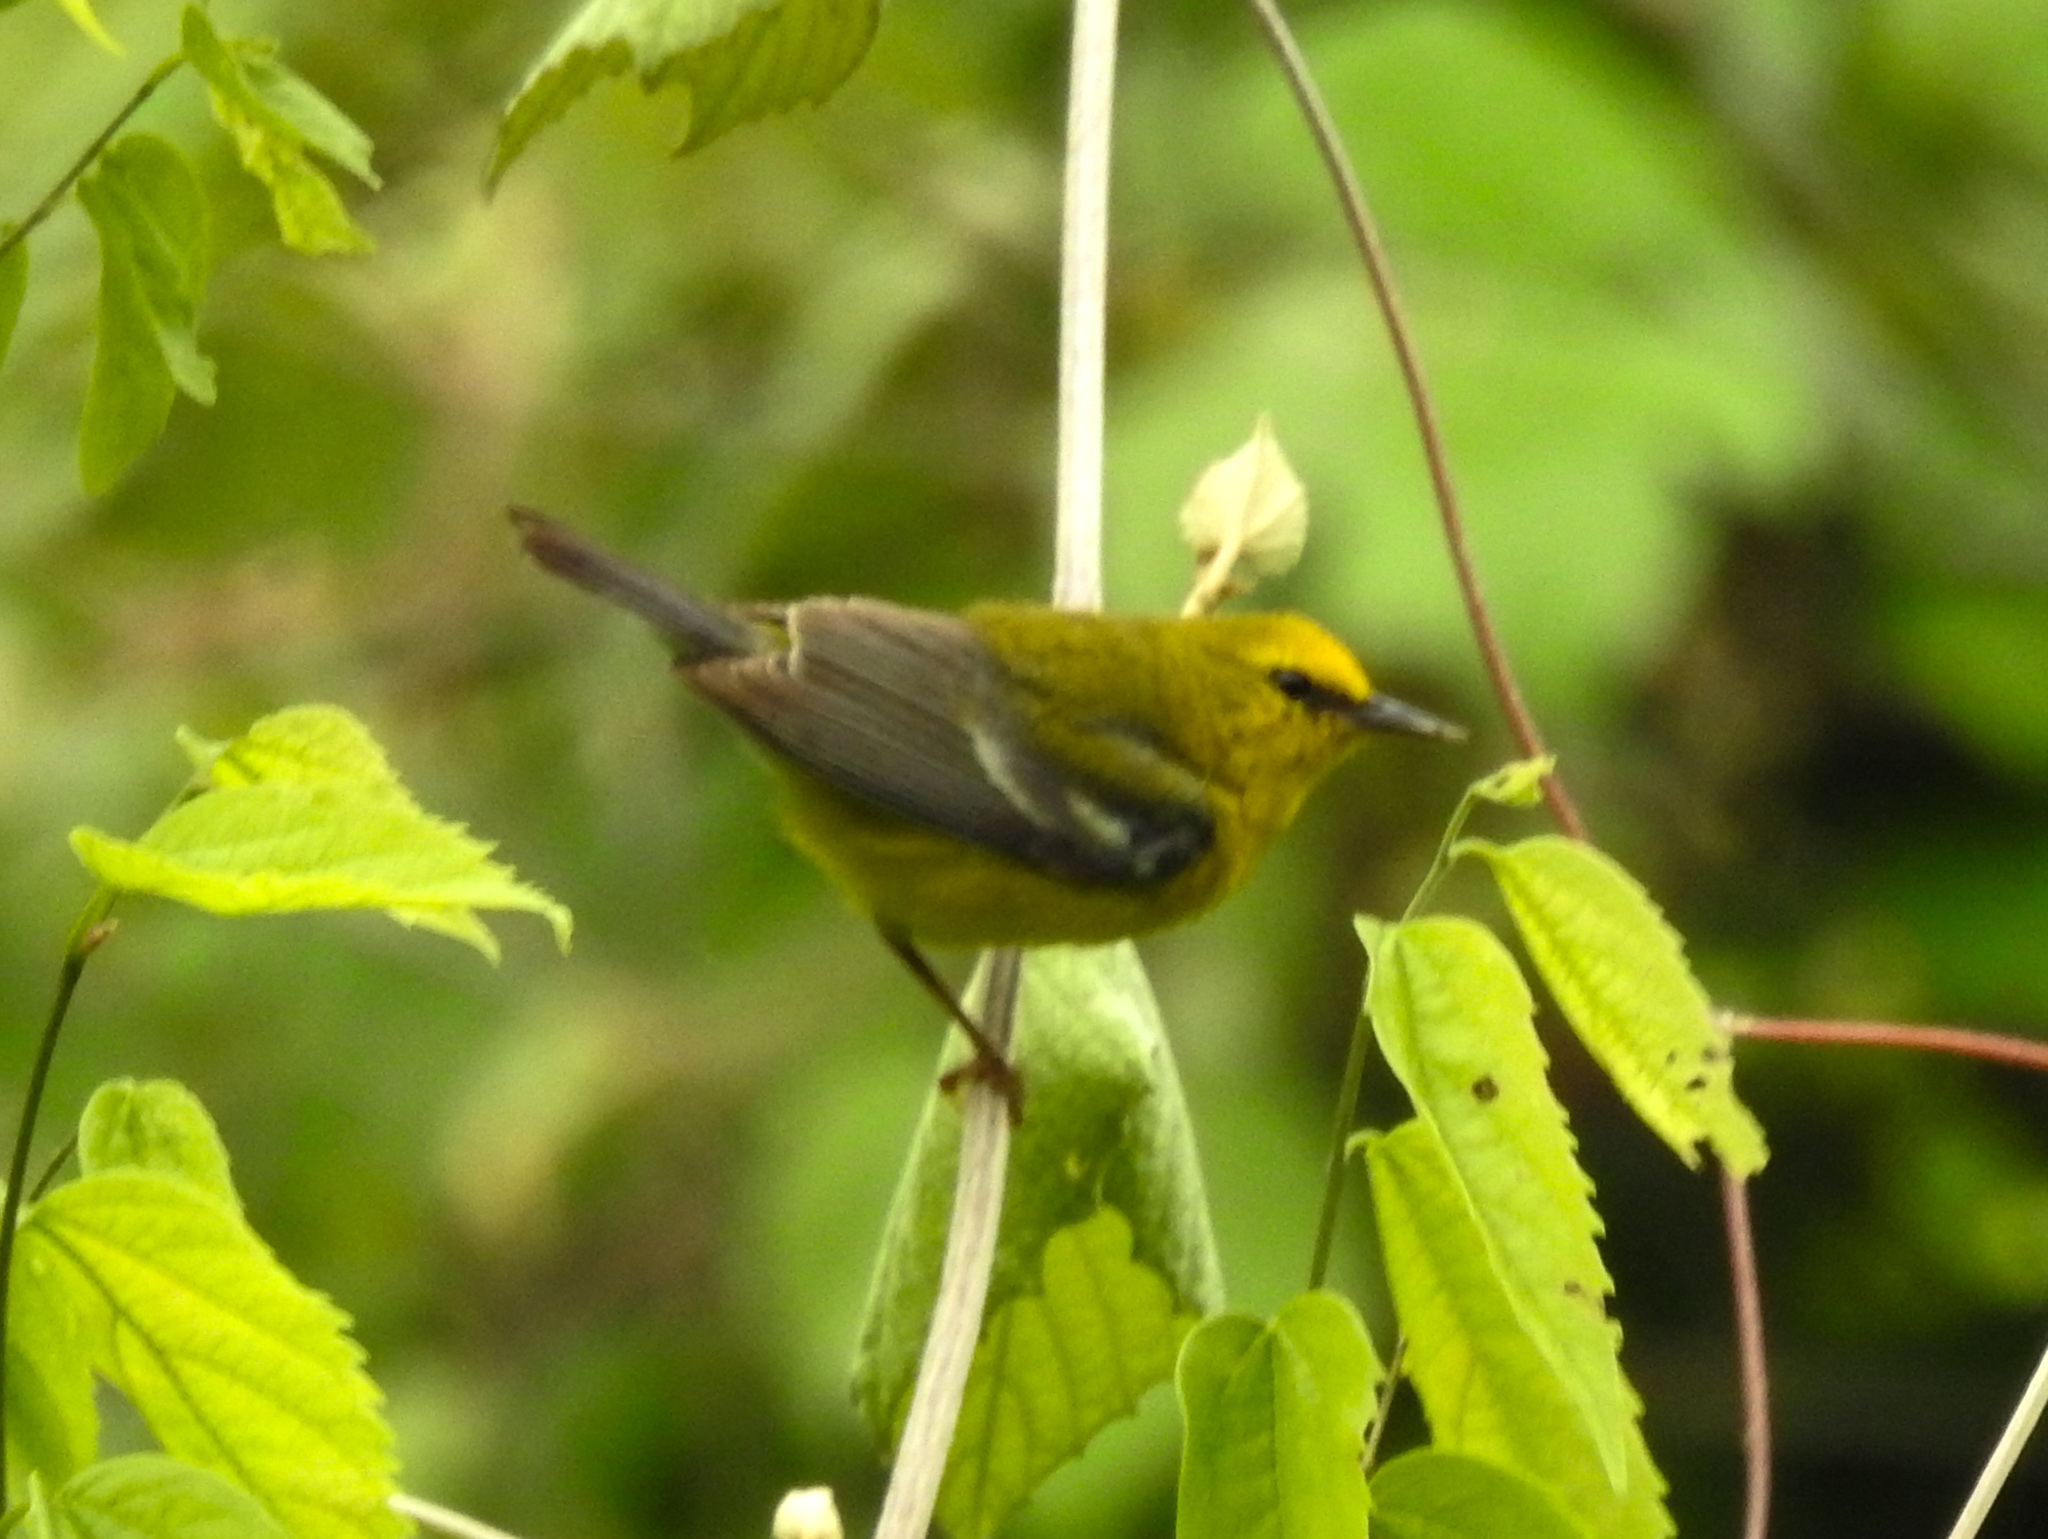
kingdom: Animalia
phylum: Chordata
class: Aves
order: Passeriformes
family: Parulidae
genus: Vermivora
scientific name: Vermivora cyanoptera
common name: Blue-winged warbler
